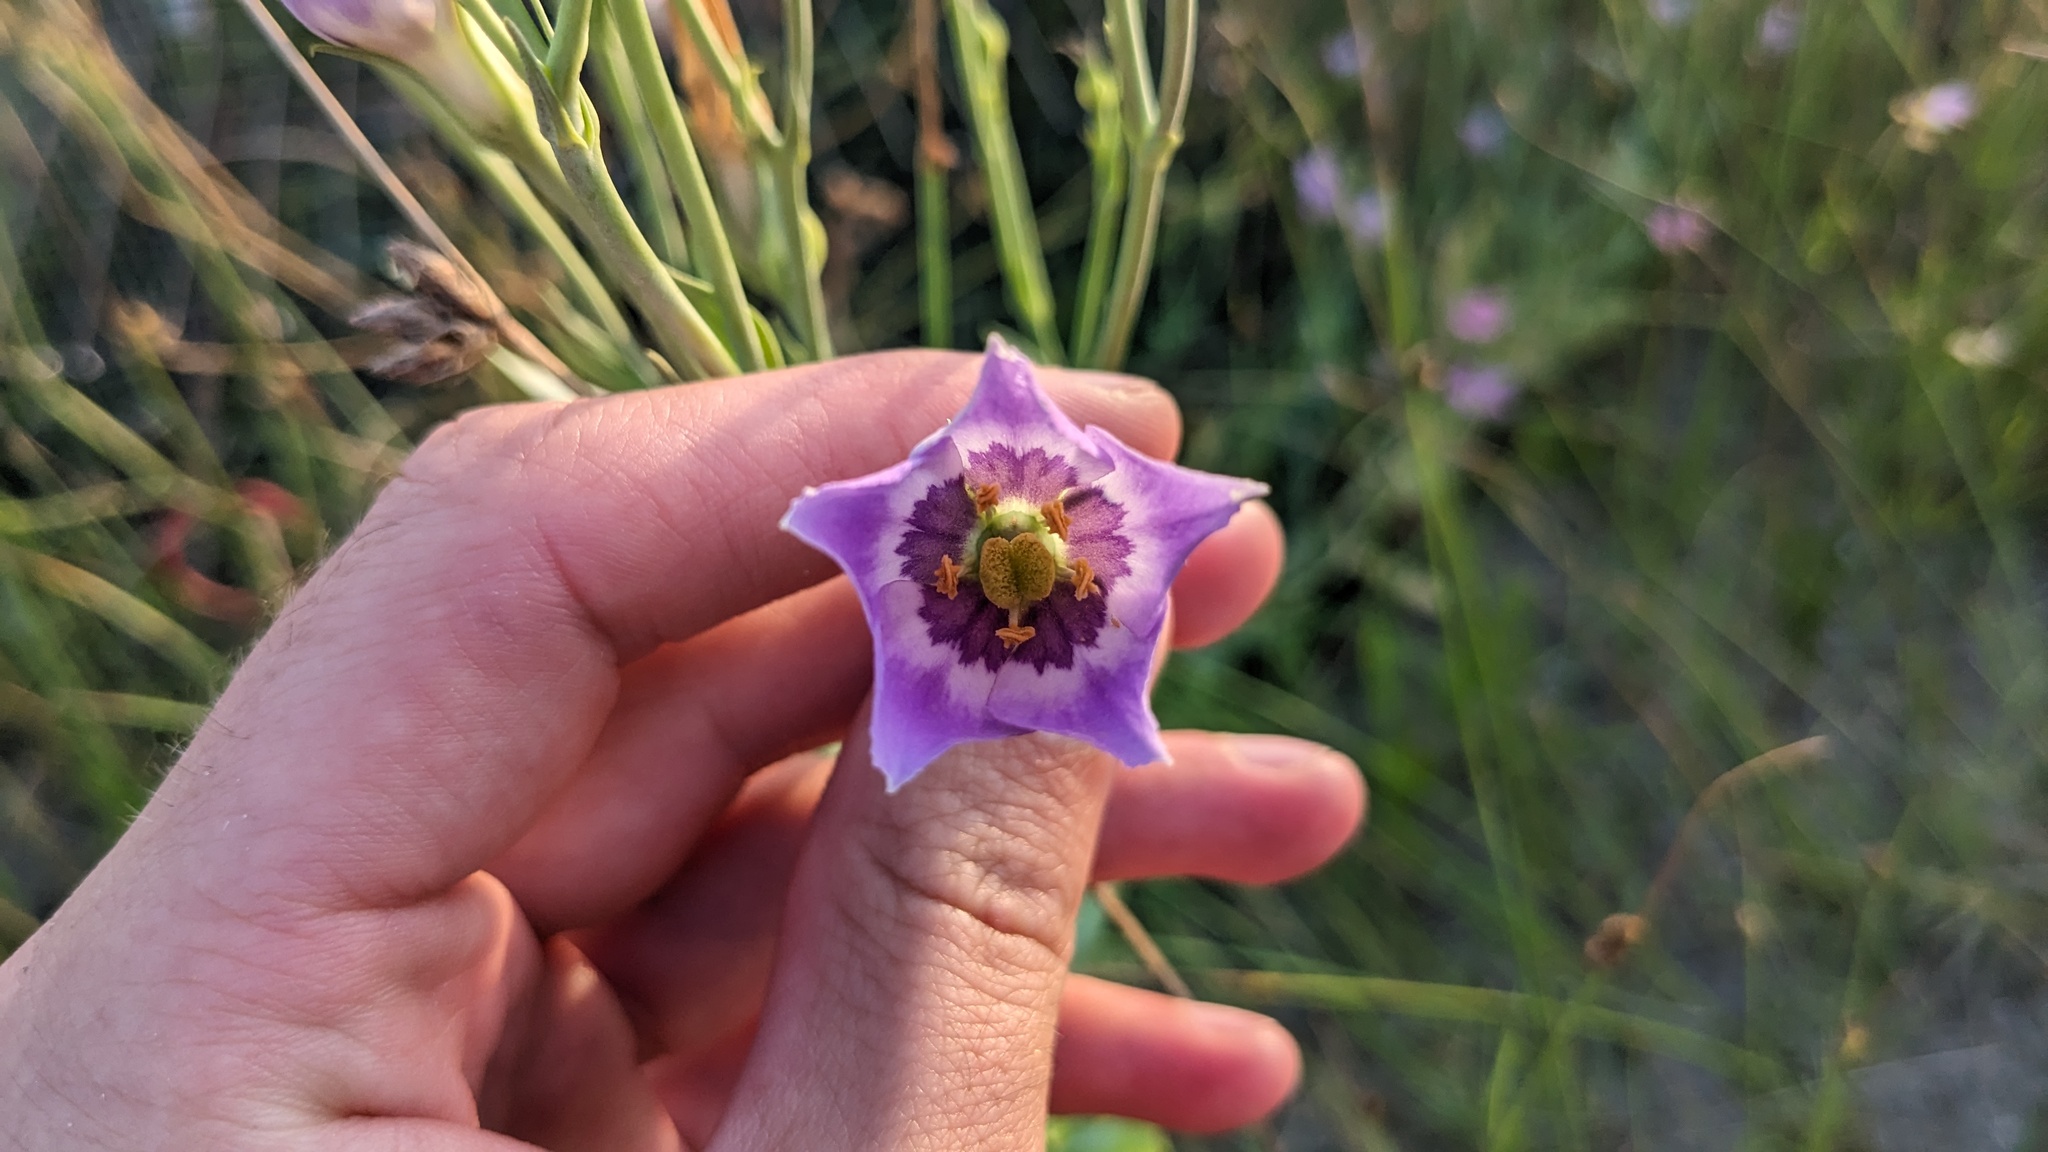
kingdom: Plantae
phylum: Tracheophyta
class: Magnoliopsida
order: Gentianales
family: Gentianaceae
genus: Eustoma
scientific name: Eustoma exaltatum
